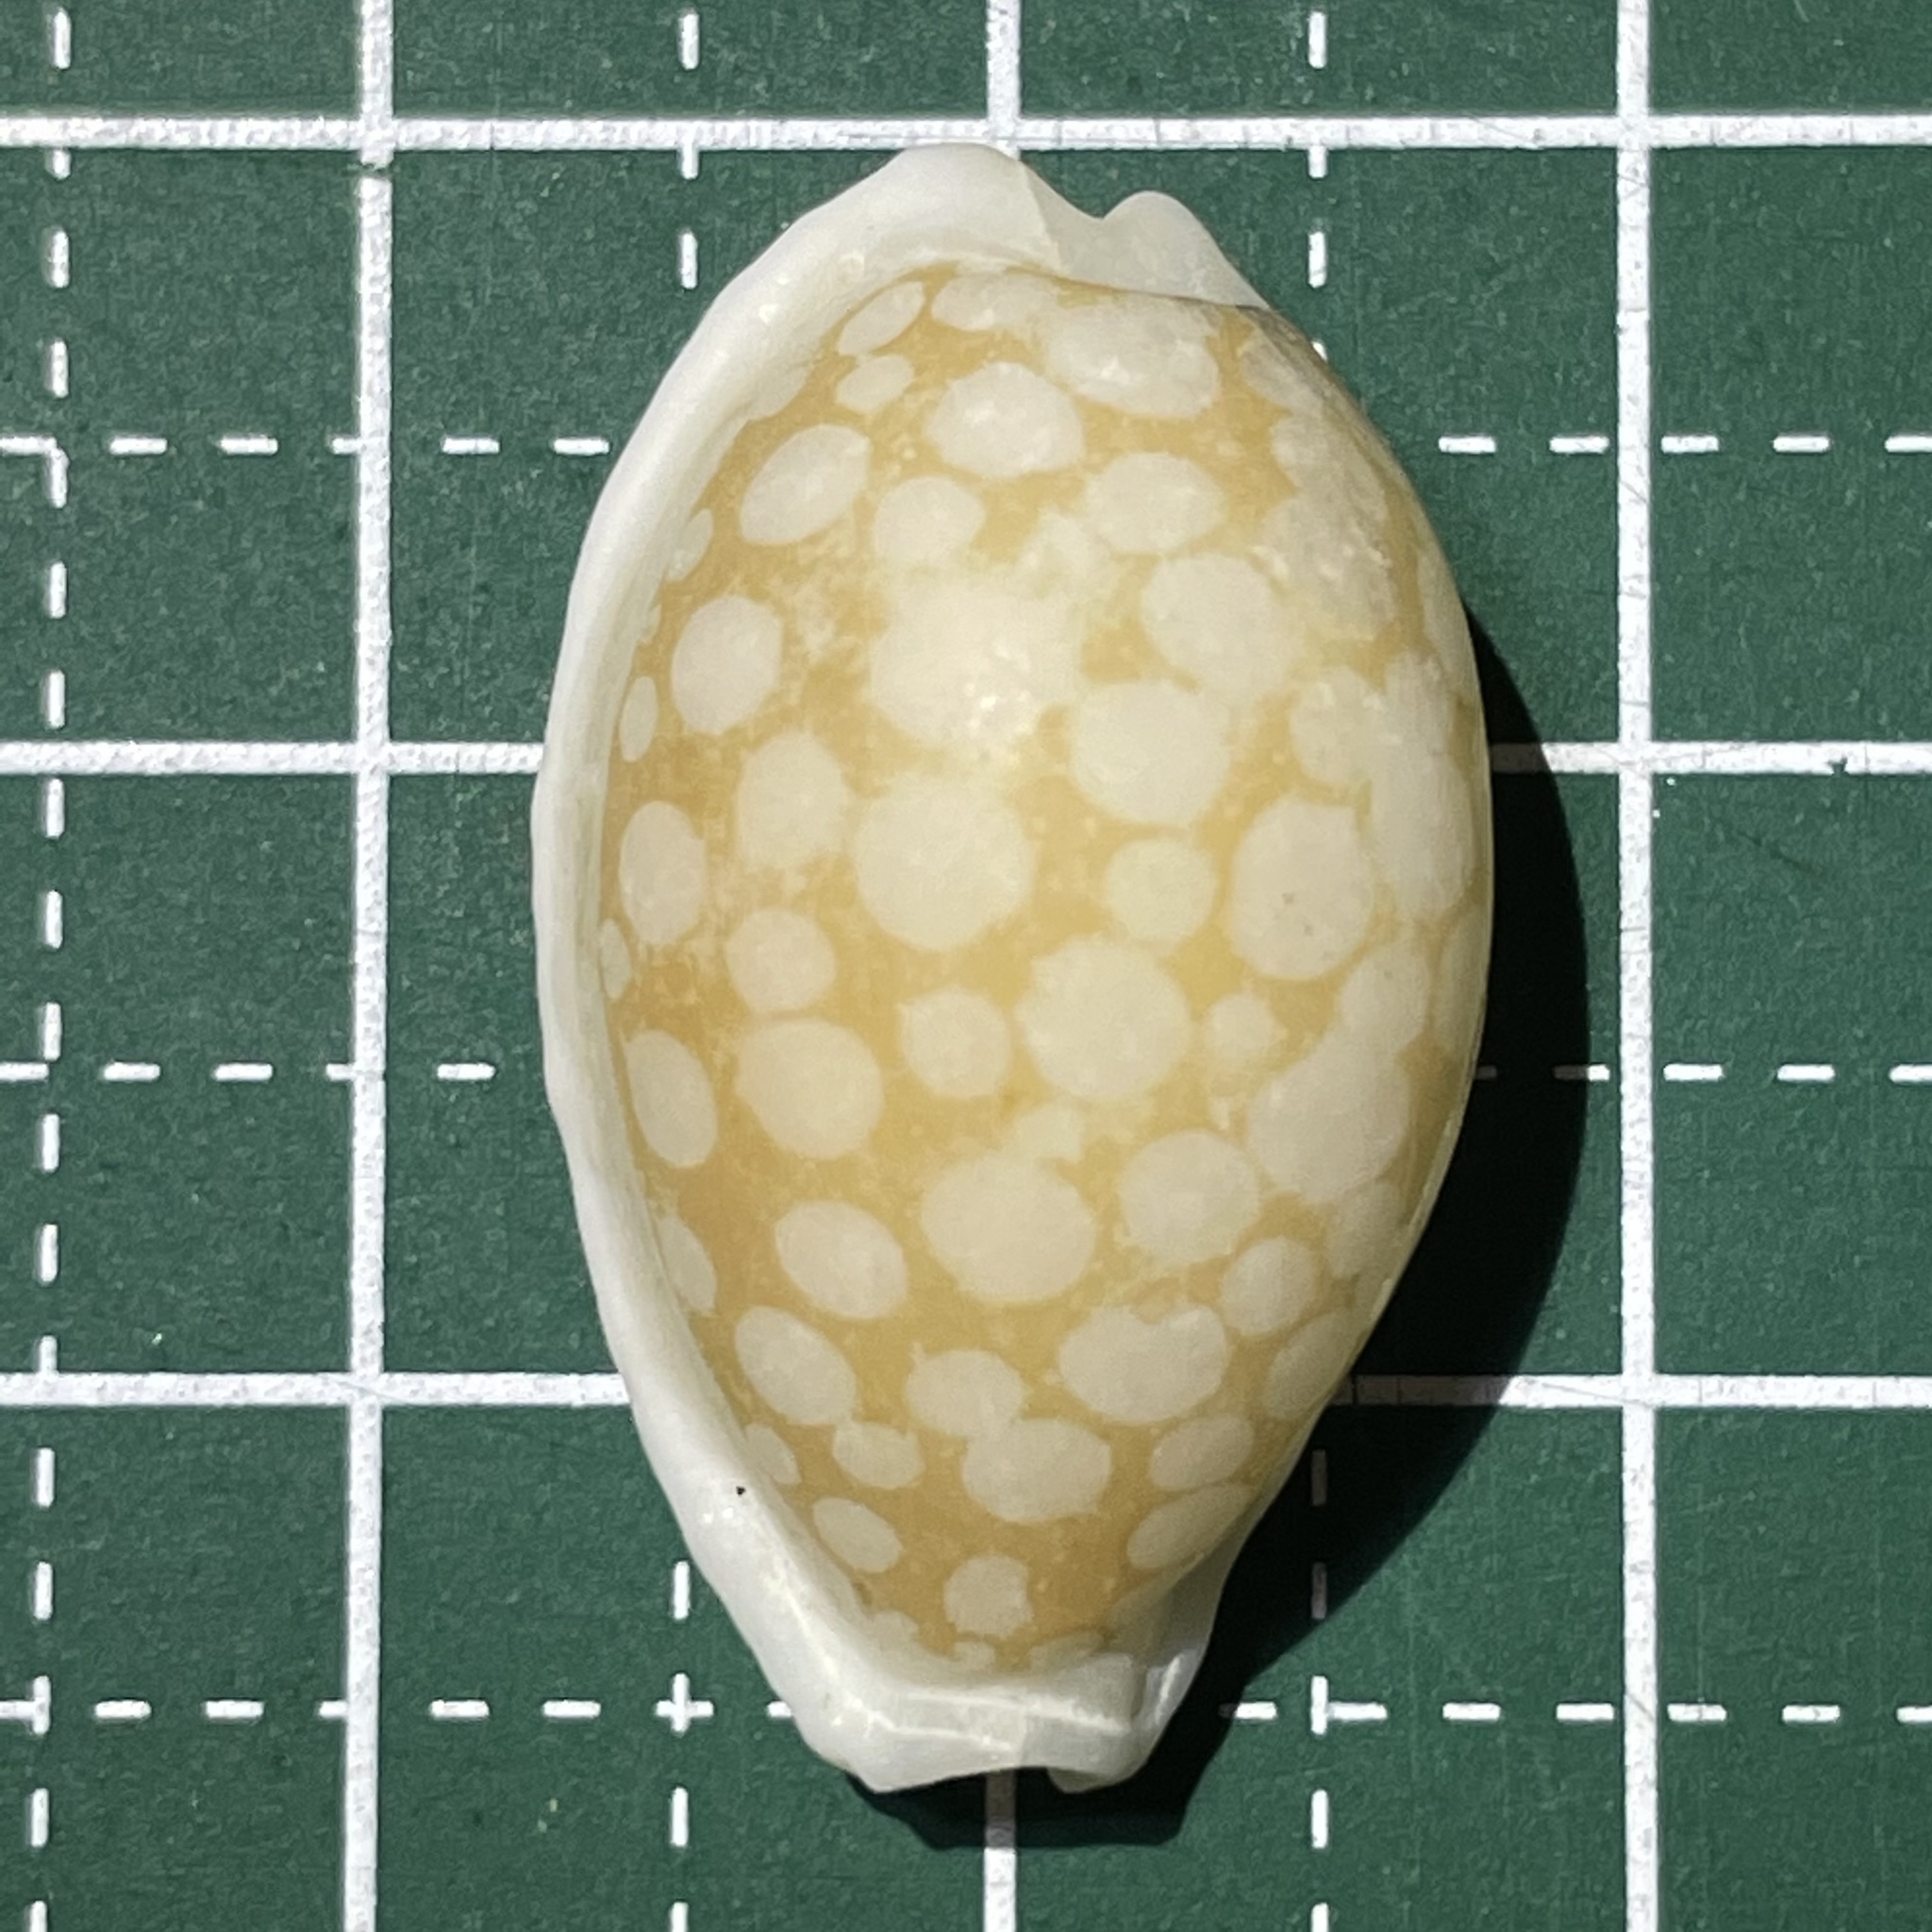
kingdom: Animalia
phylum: Mollusca
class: Gastropoda
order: Littorinimorpha
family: Cypraeidae
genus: Cribrarula
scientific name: Cribrarula cribraria
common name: Sieve cowrie
